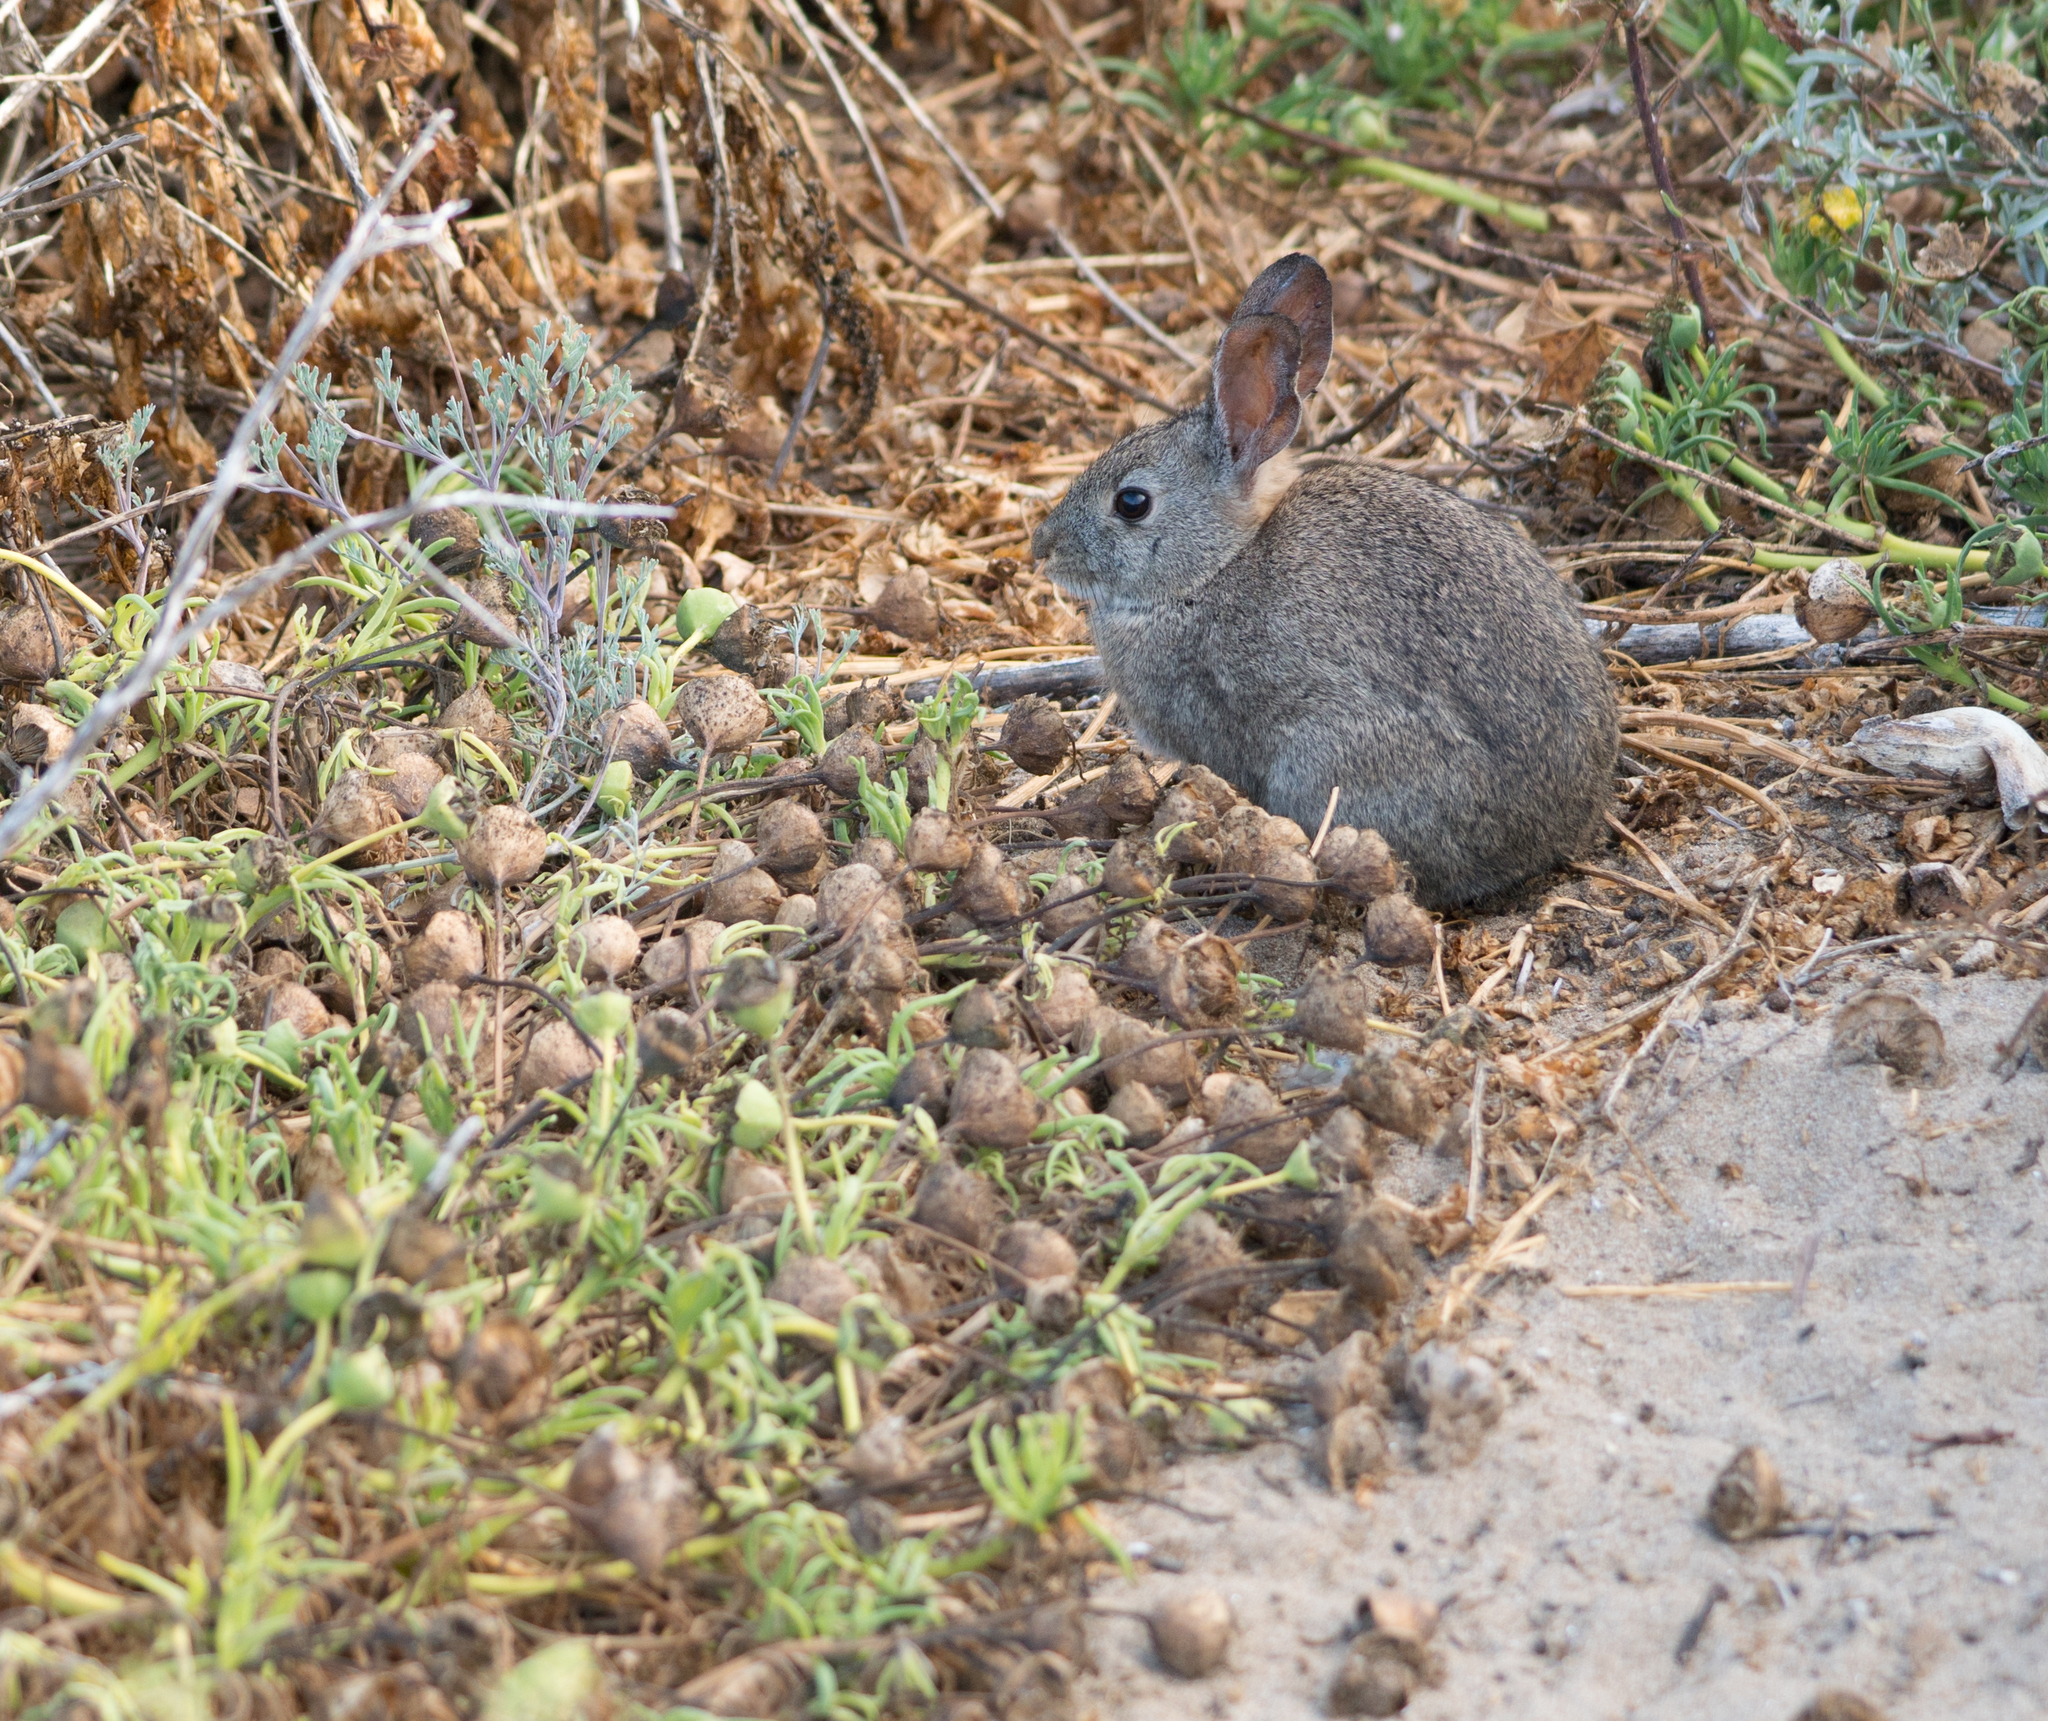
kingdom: Animalia
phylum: Chordata
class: Mammalia
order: Lagomorpha
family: Leporidae
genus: Sylvilagus
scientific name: Sylvilagus bachmani
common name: Brush rabbit
